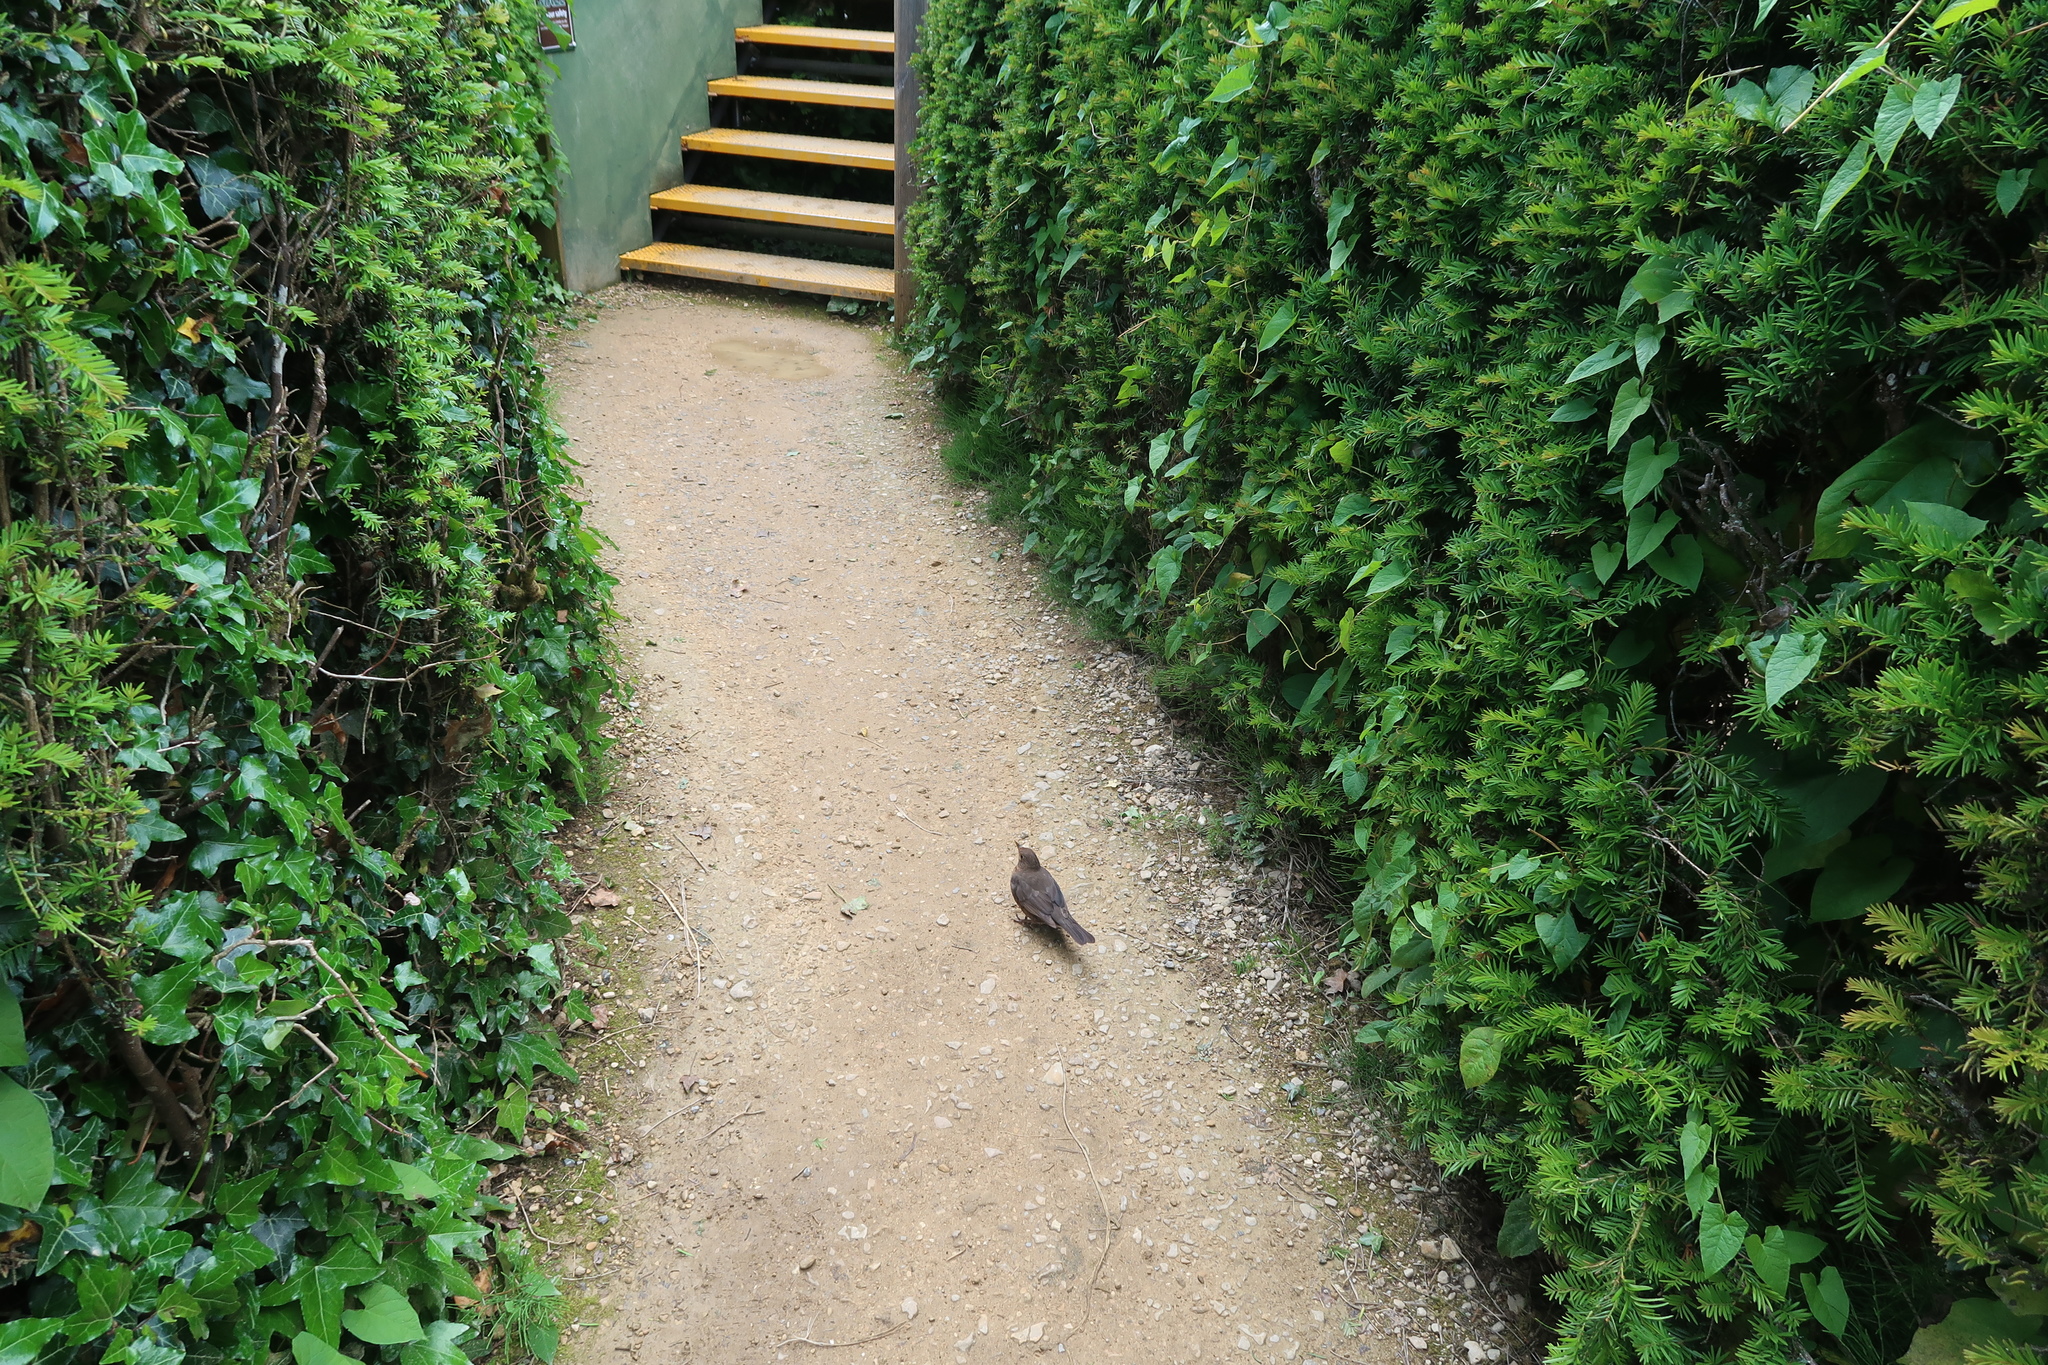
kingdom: Animalia
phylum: Chordata
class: Aves
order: Passeriformes
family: Turdidae
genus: Turdus
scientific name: Turdus merula
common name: Common blackbird
